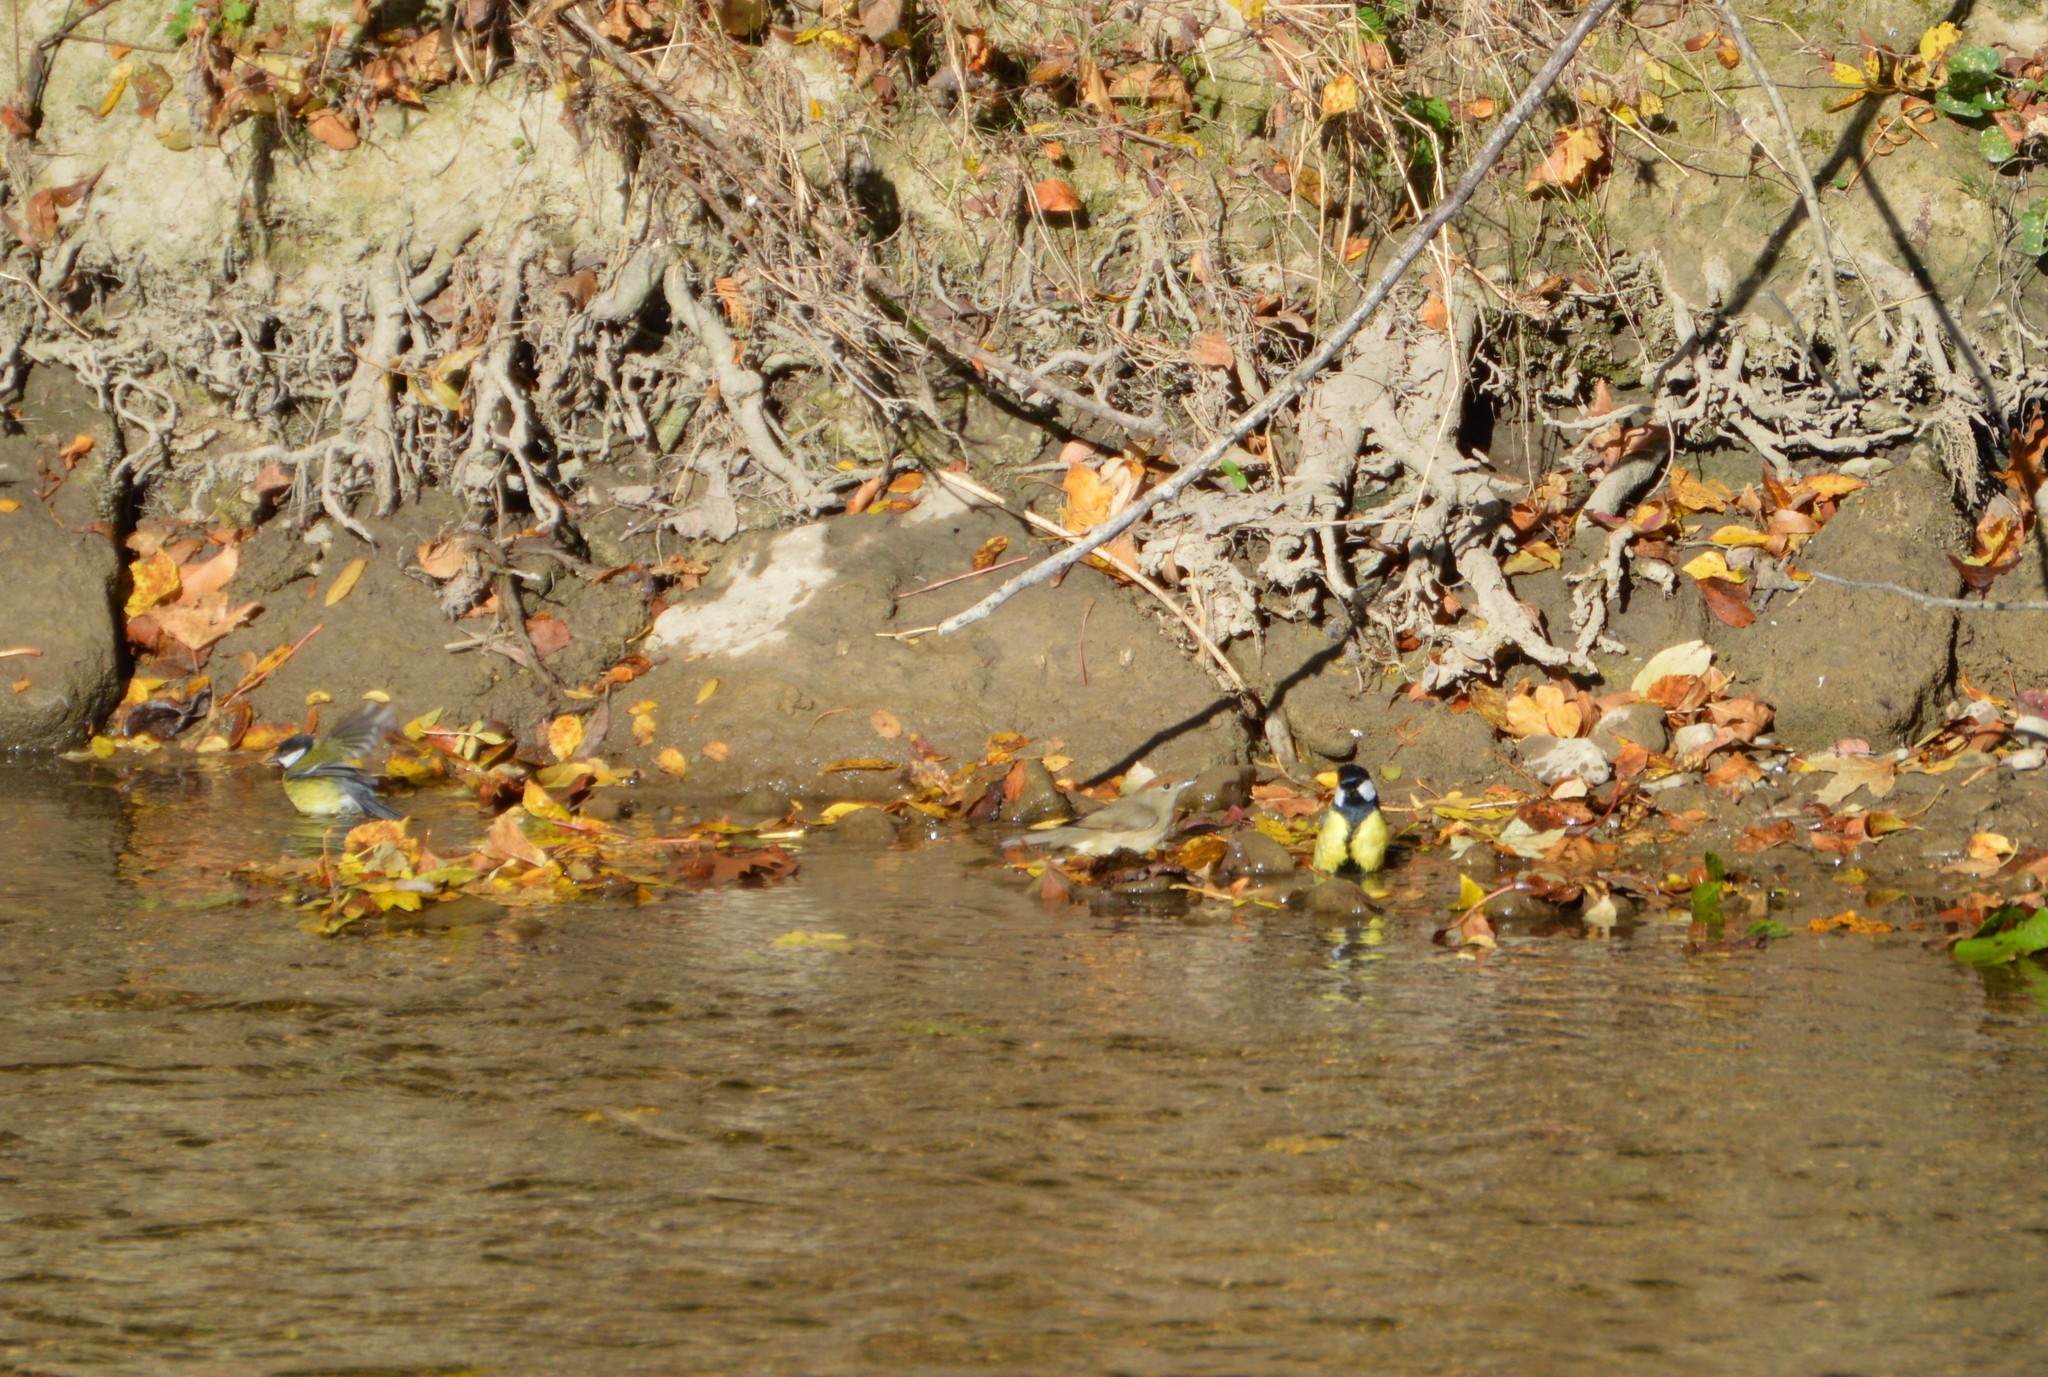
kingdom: Animalia
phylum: Chordata
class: Aves
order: Passeriformes
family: Sylviidae
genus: Sylvia
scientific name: Sylvia atricapilla
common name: Eurasian blackcap
